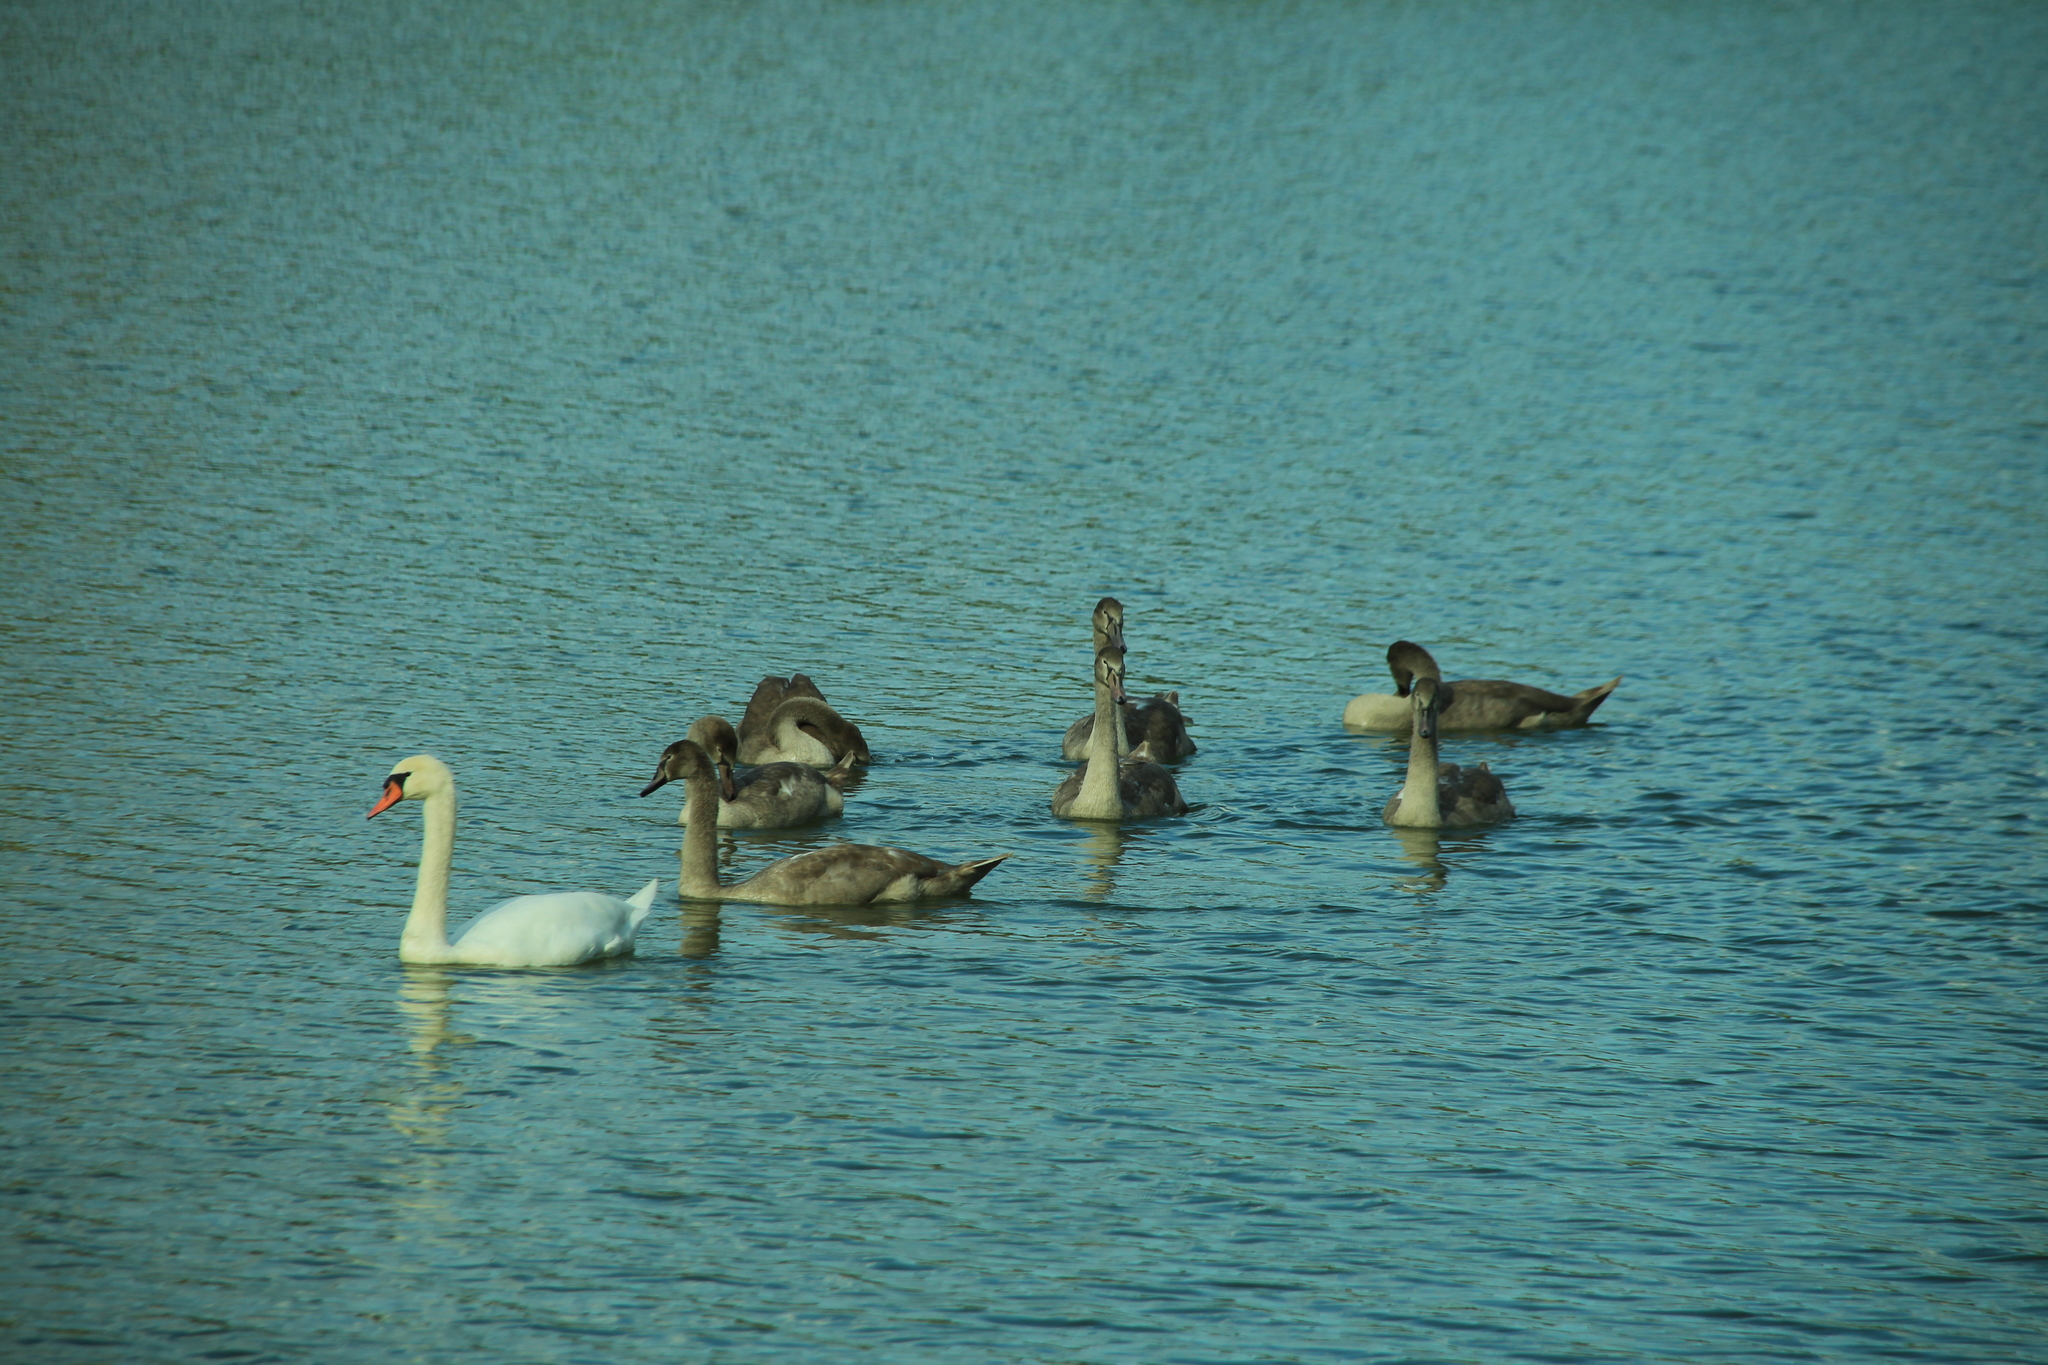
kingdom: Animalia
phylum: Chordata
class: Aves
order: Anseriformes
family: Anatidae
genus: Cygnus
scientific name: Cygnus olor
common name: Mute swan
